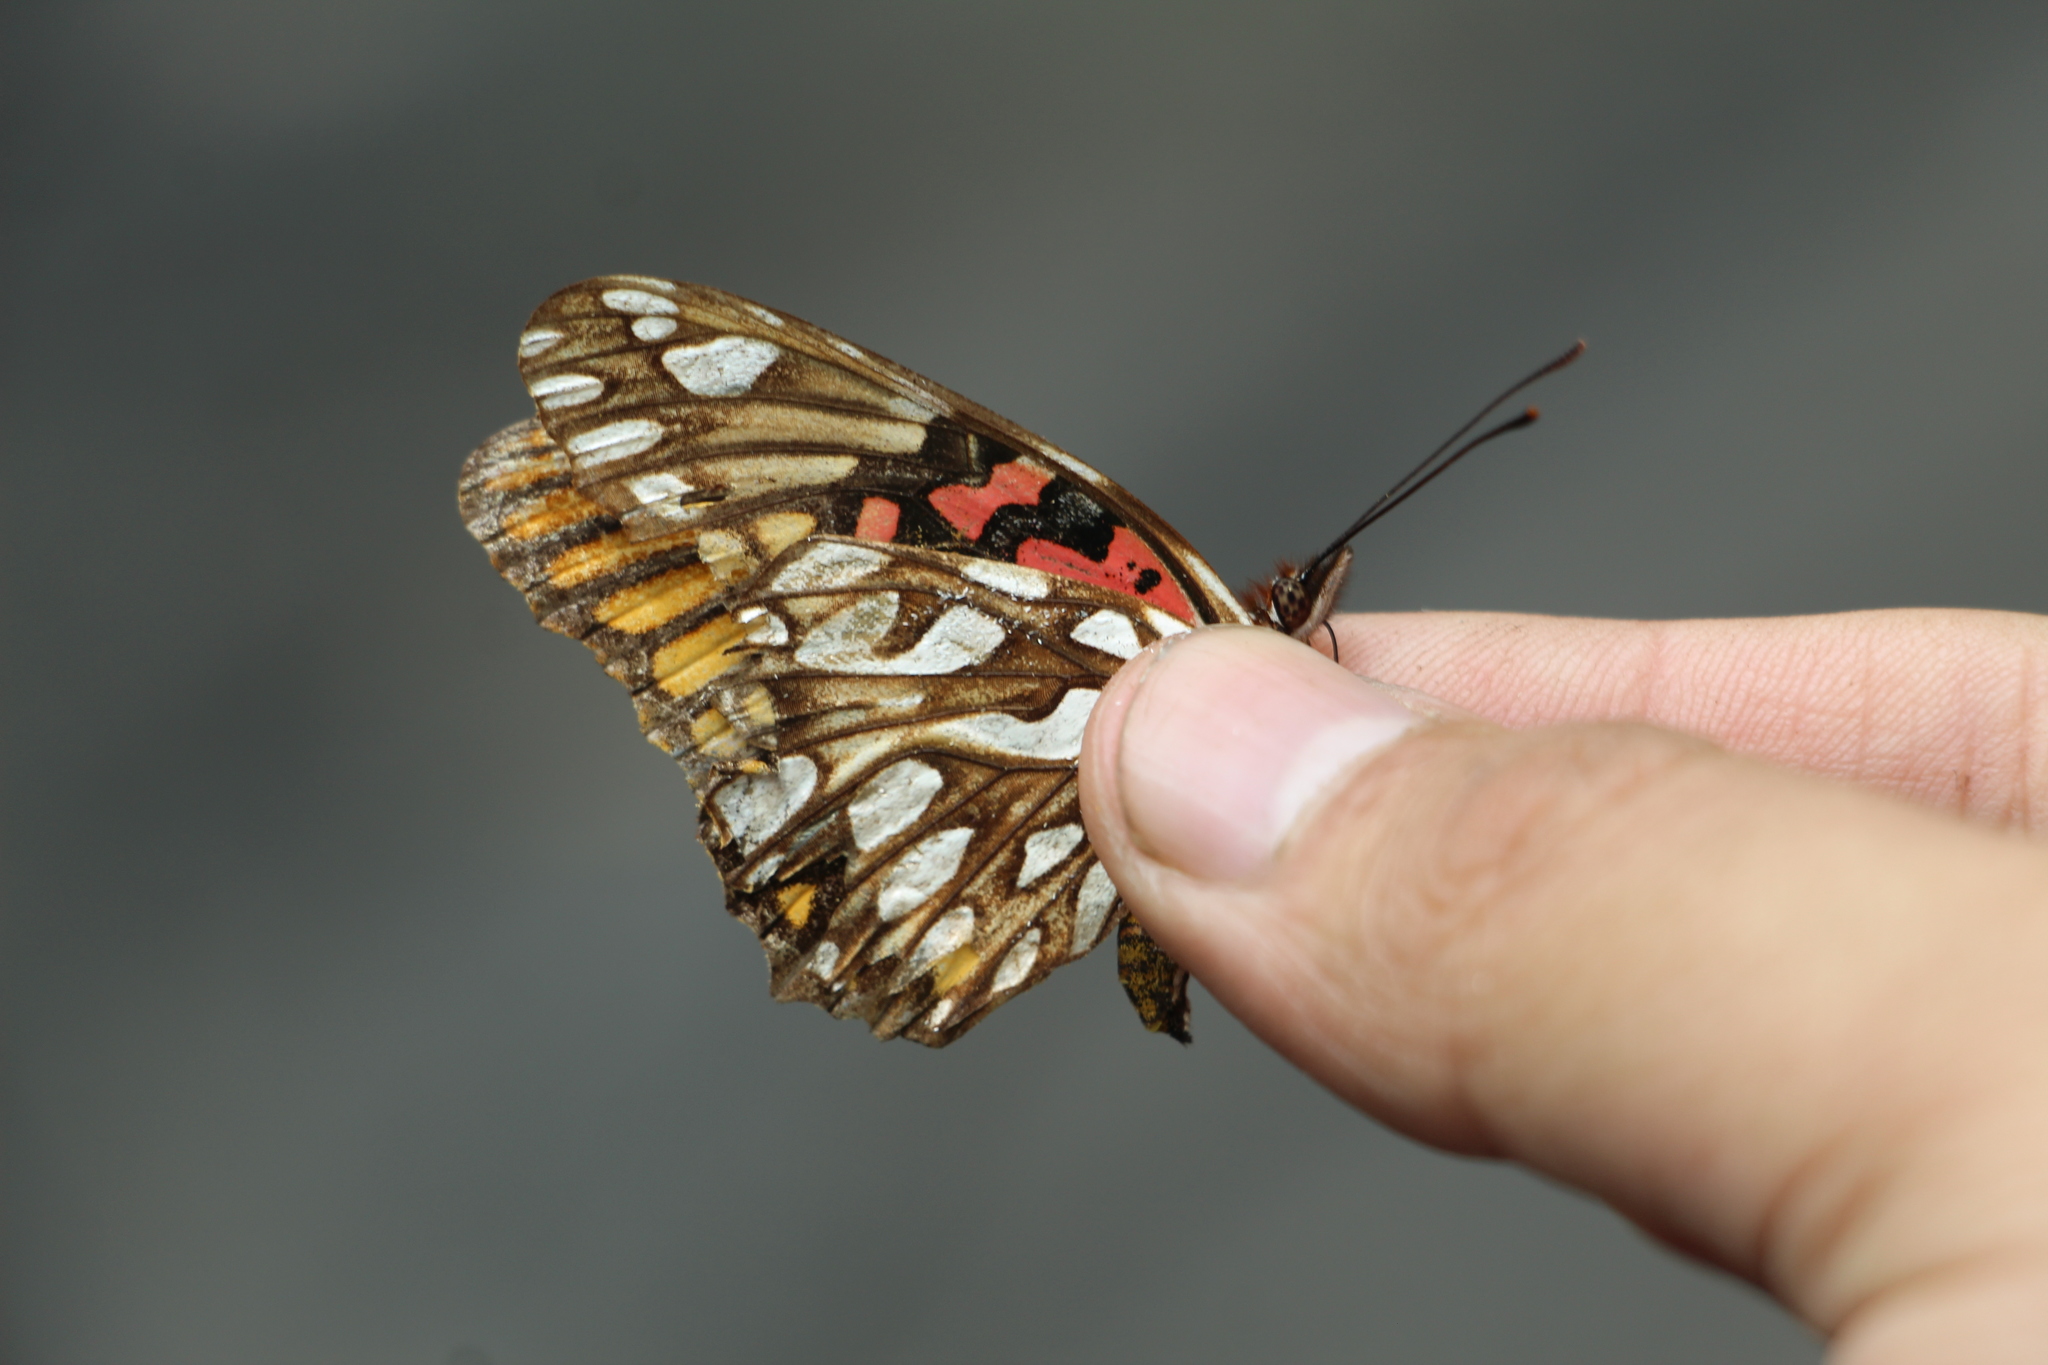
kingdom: Animalia
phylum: Arthropoda
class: Insecta
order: Lepidoptera
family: Nymphalidae
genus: Dione
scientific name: Dione moneta
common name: Mexican silverspot
